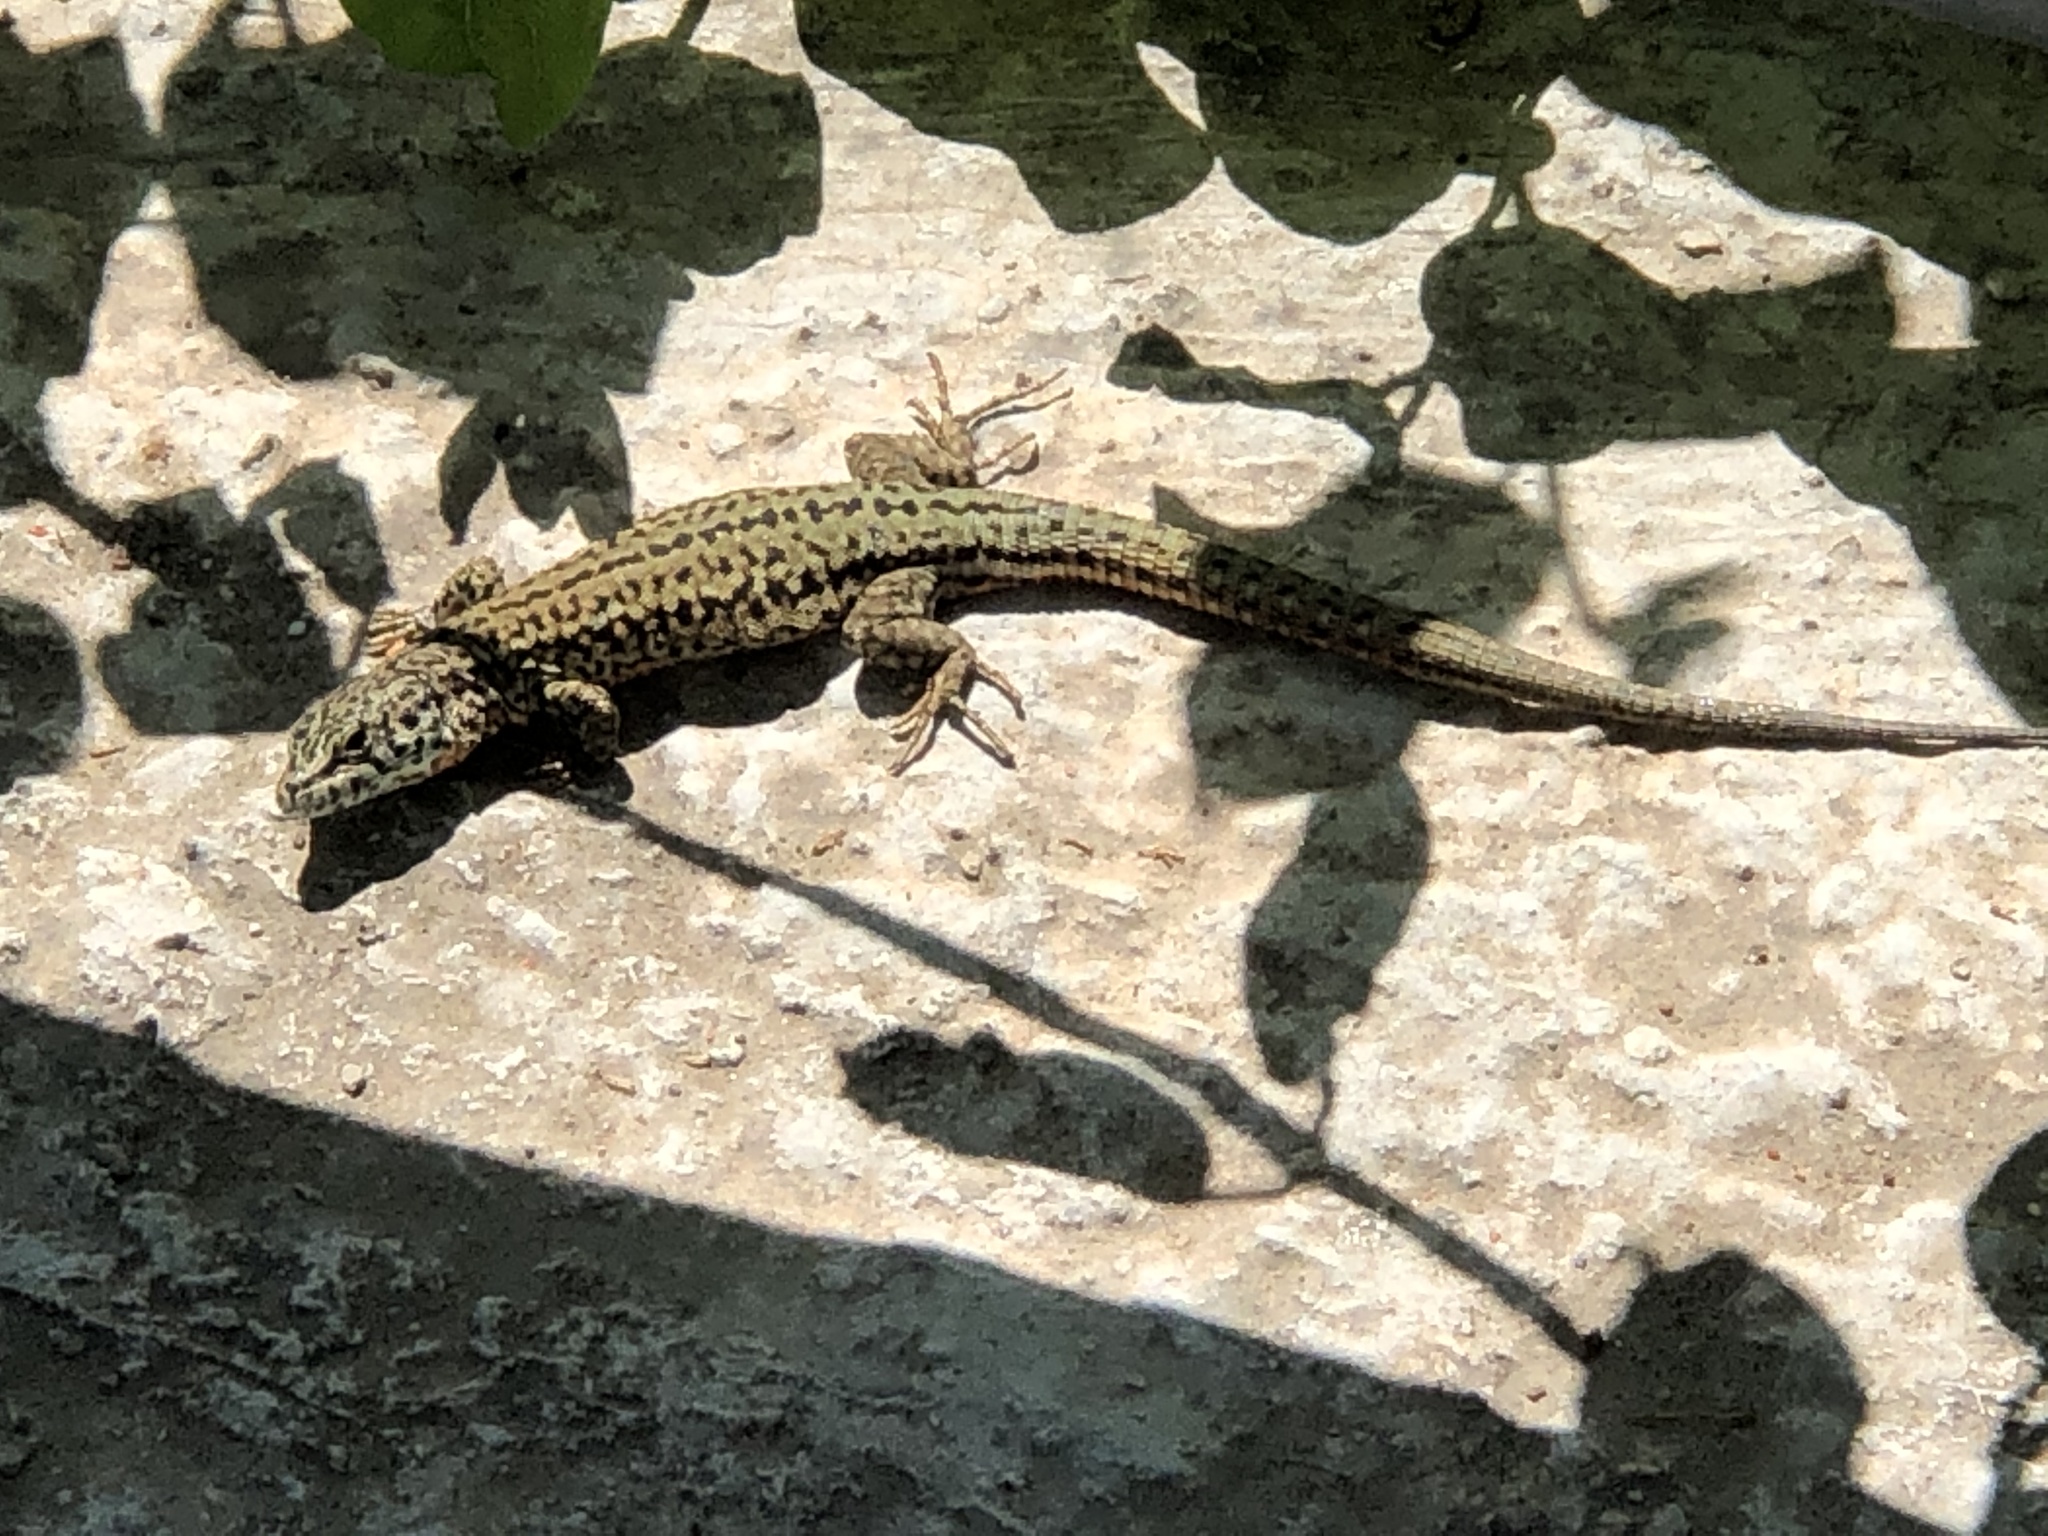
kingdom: Animalia
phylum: Chordata
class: Squamata
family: Lacertidae
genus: Podarcis
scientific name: Podarcis liolepis
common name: Catalonian wall lizard
